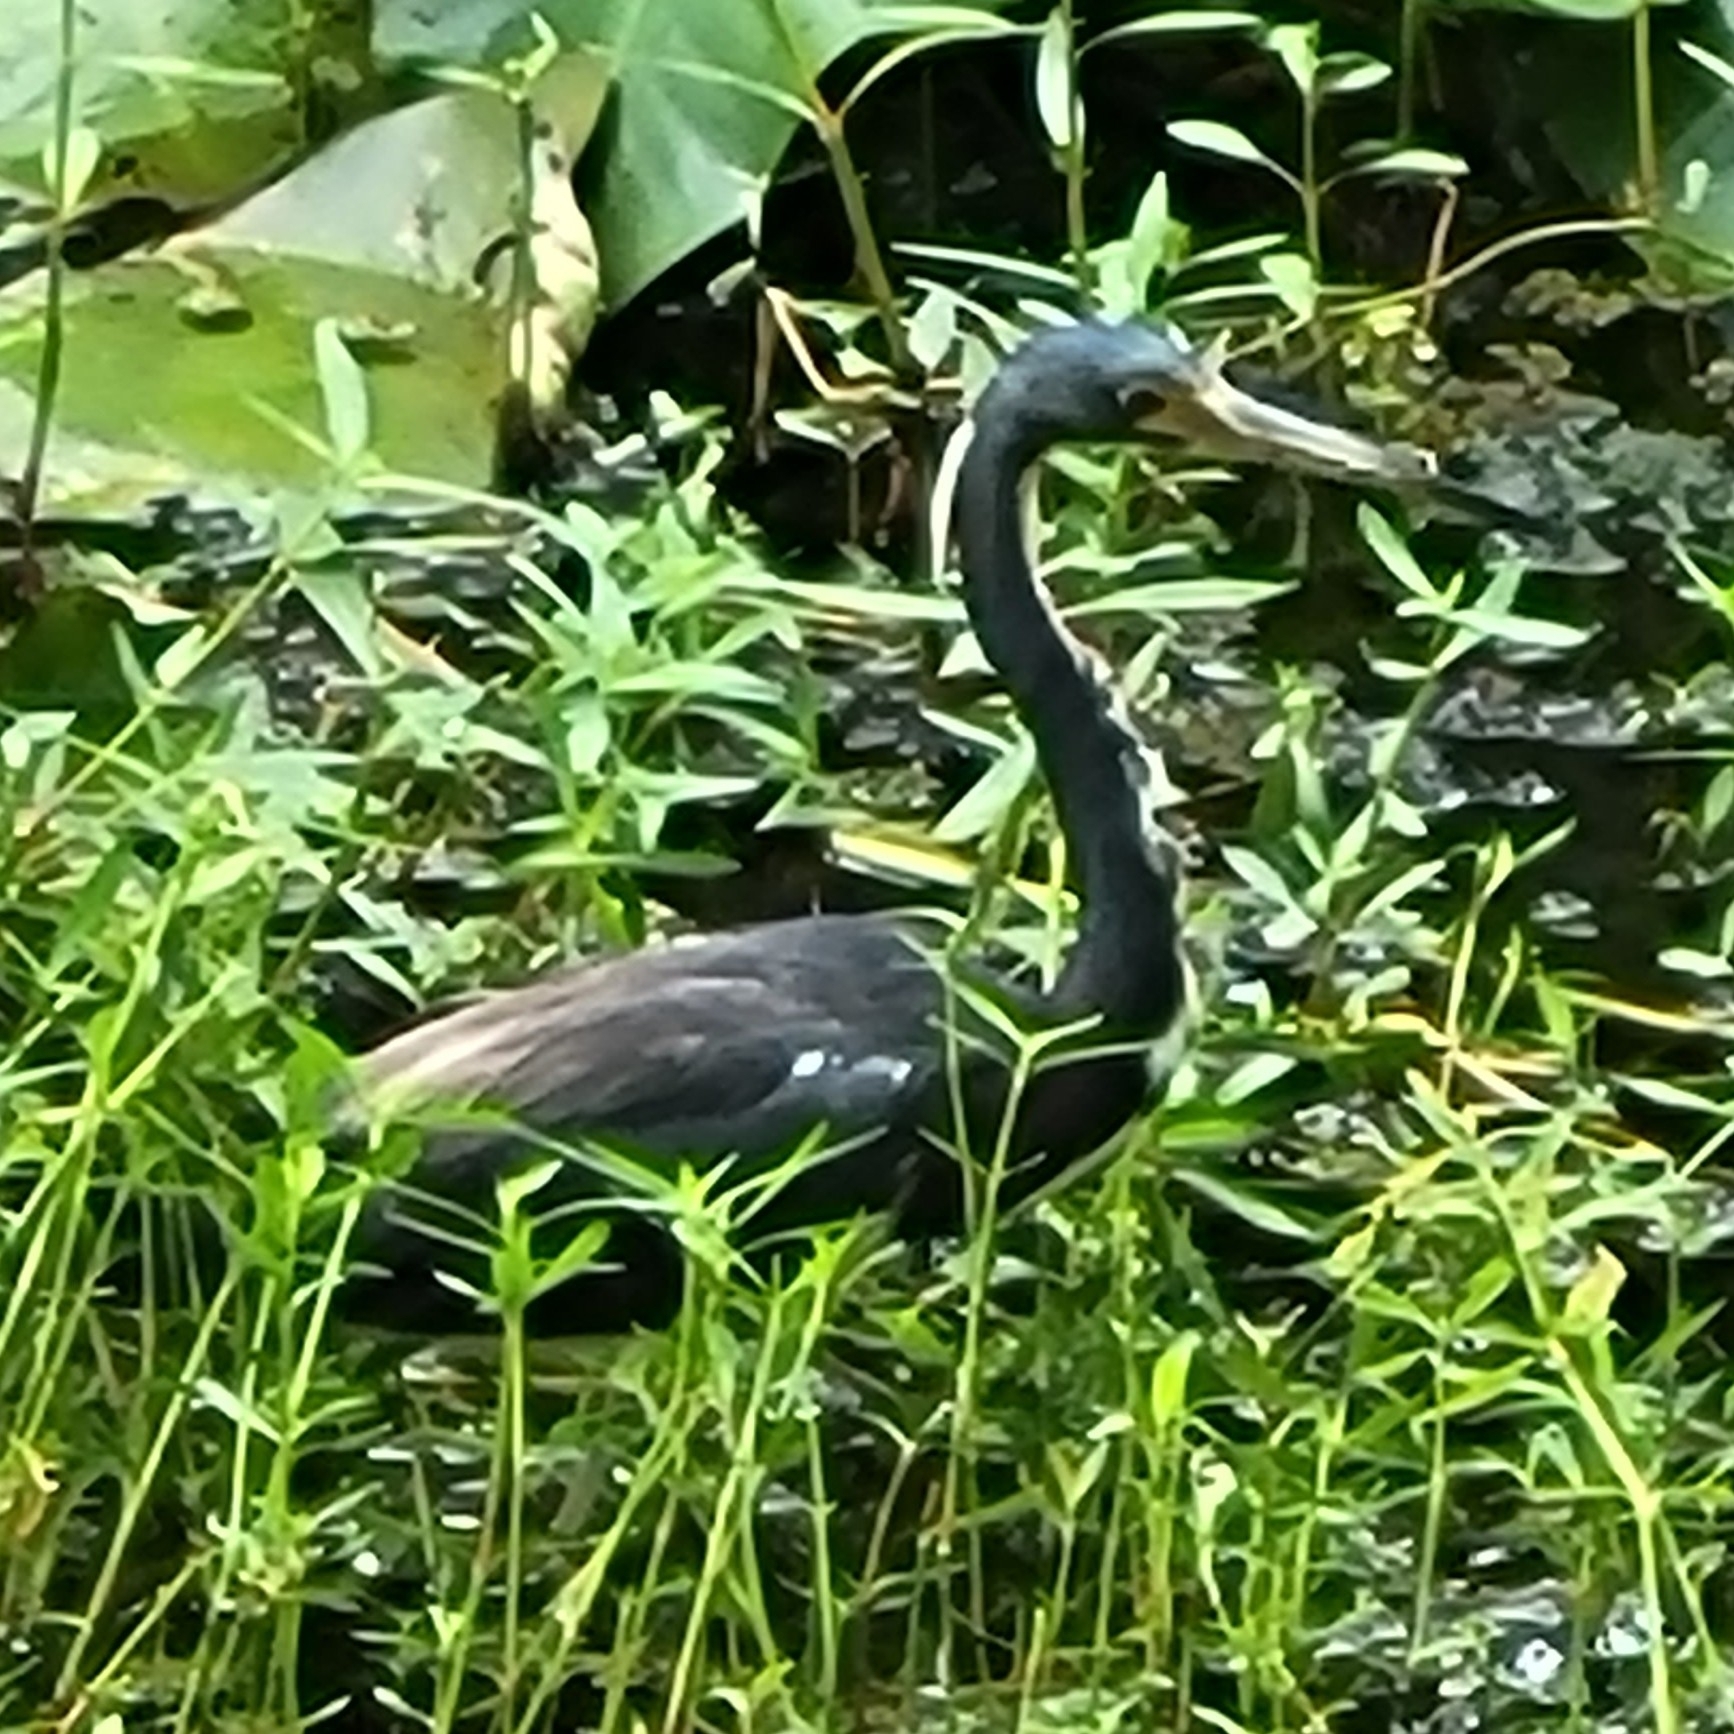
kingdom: Animalia
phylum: Chordata
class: Aves
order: Pelecaniformes
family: Ardeidae
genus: Egretta
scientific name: Egretta tricolor
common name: Tricolored heron
